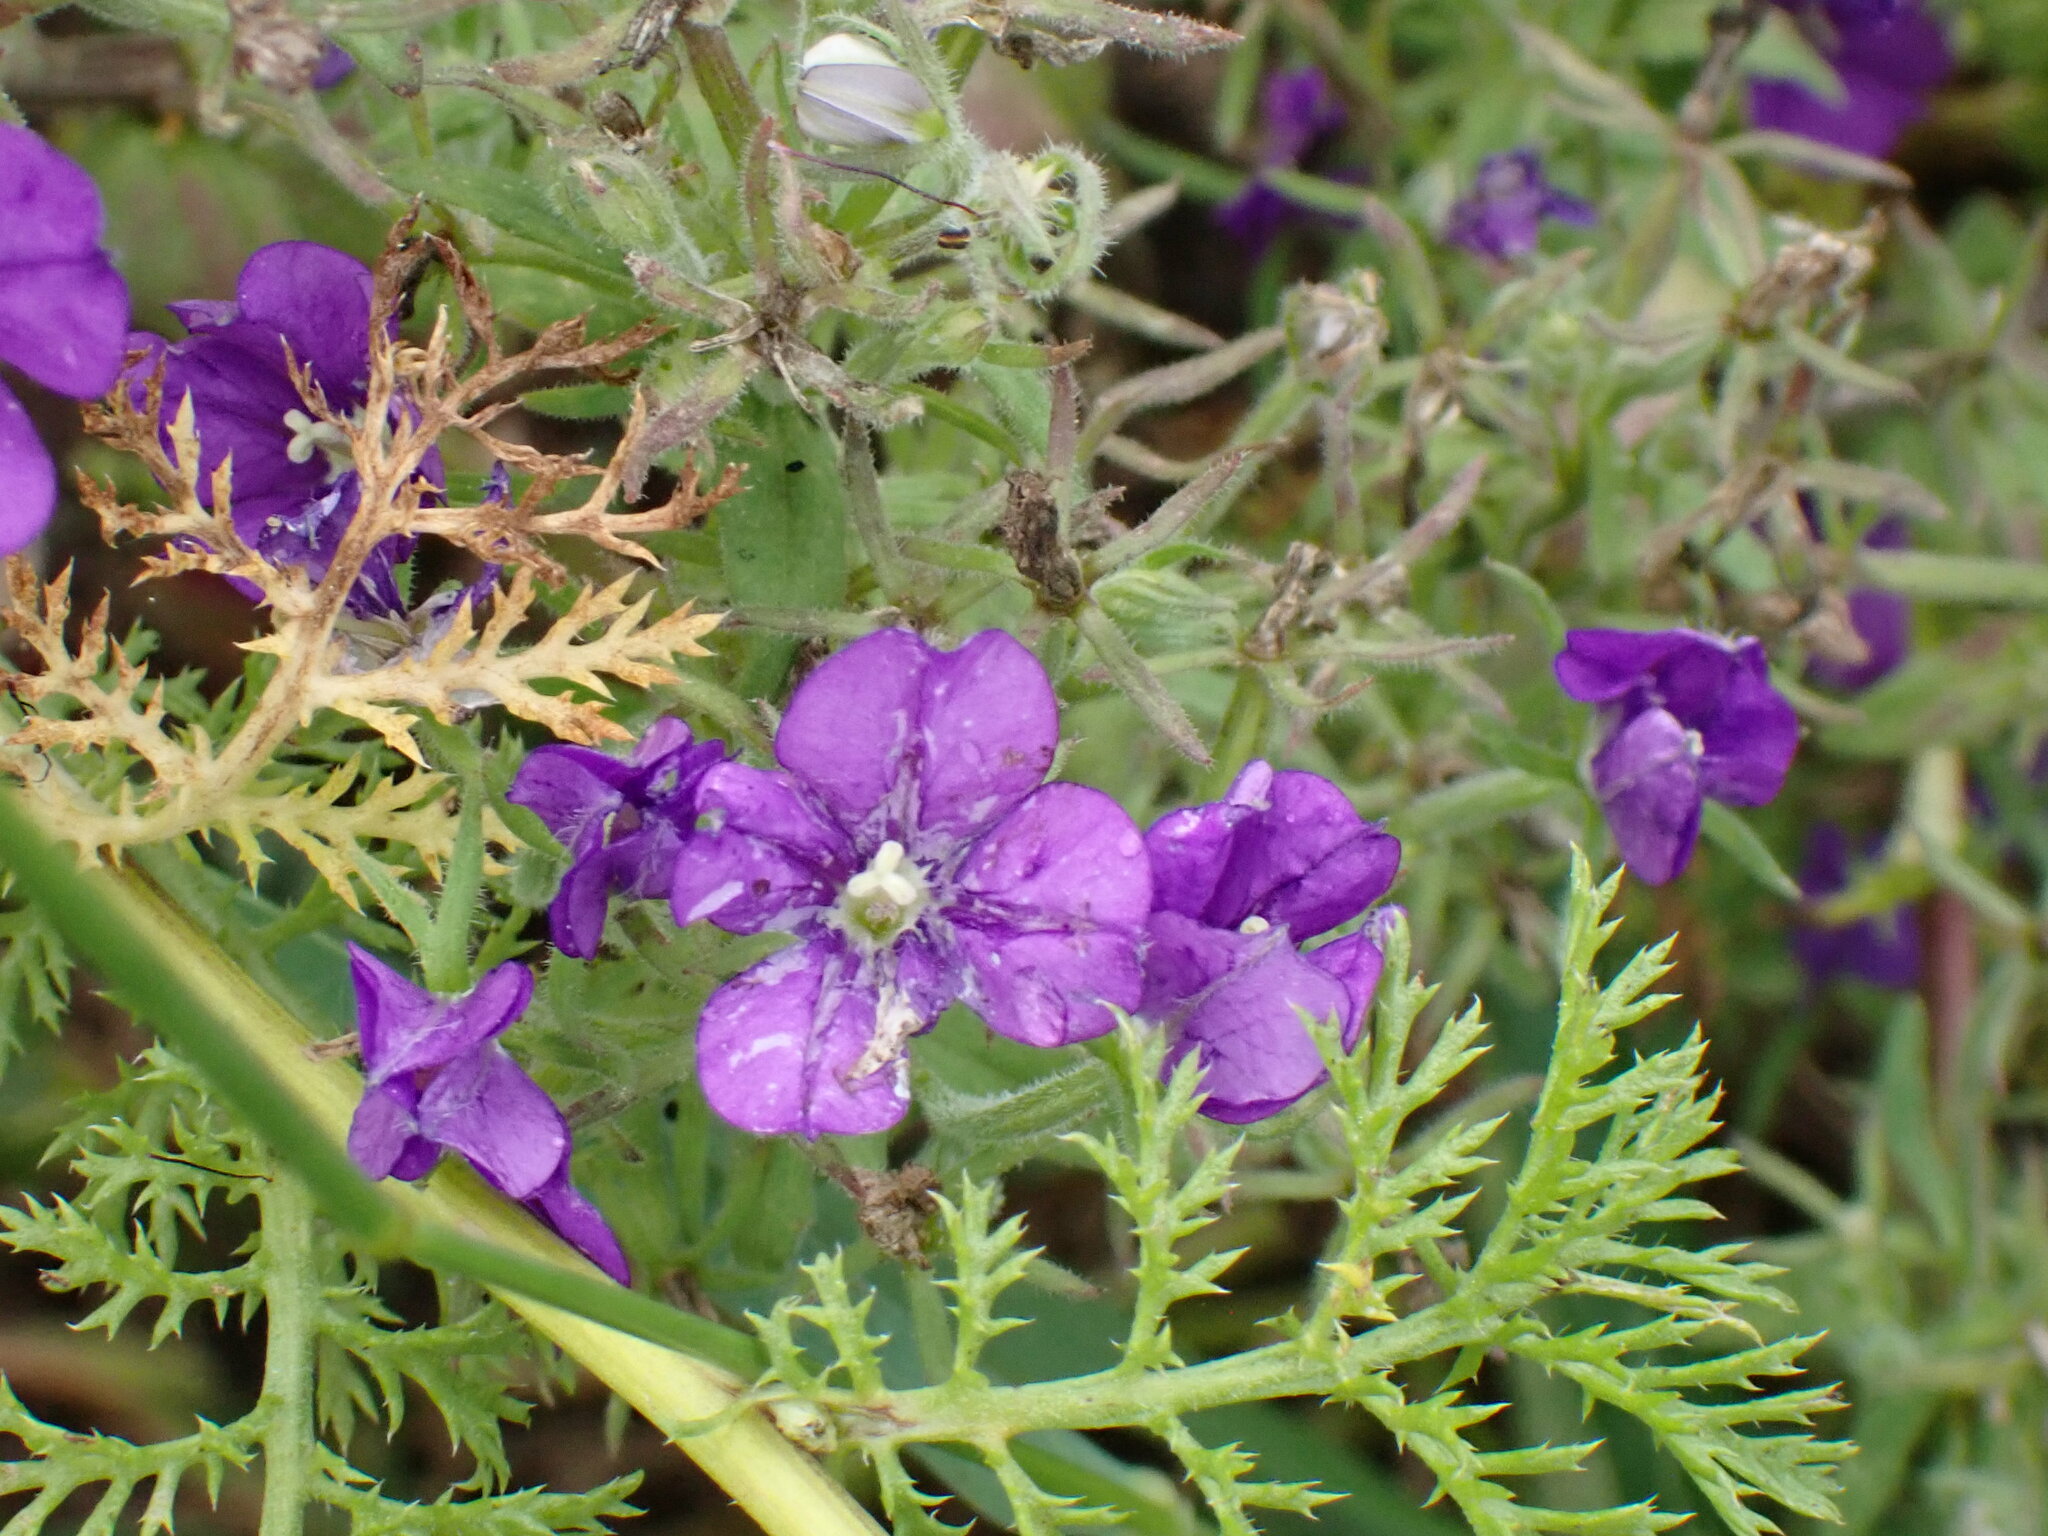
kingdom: Plantae
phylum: Tracheophyta
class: Magnoliopsida
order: Asterales
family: Campanulaceae
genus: Legousia
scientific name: Legousia speculum-veneris
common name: Large venus's-looking-glass
